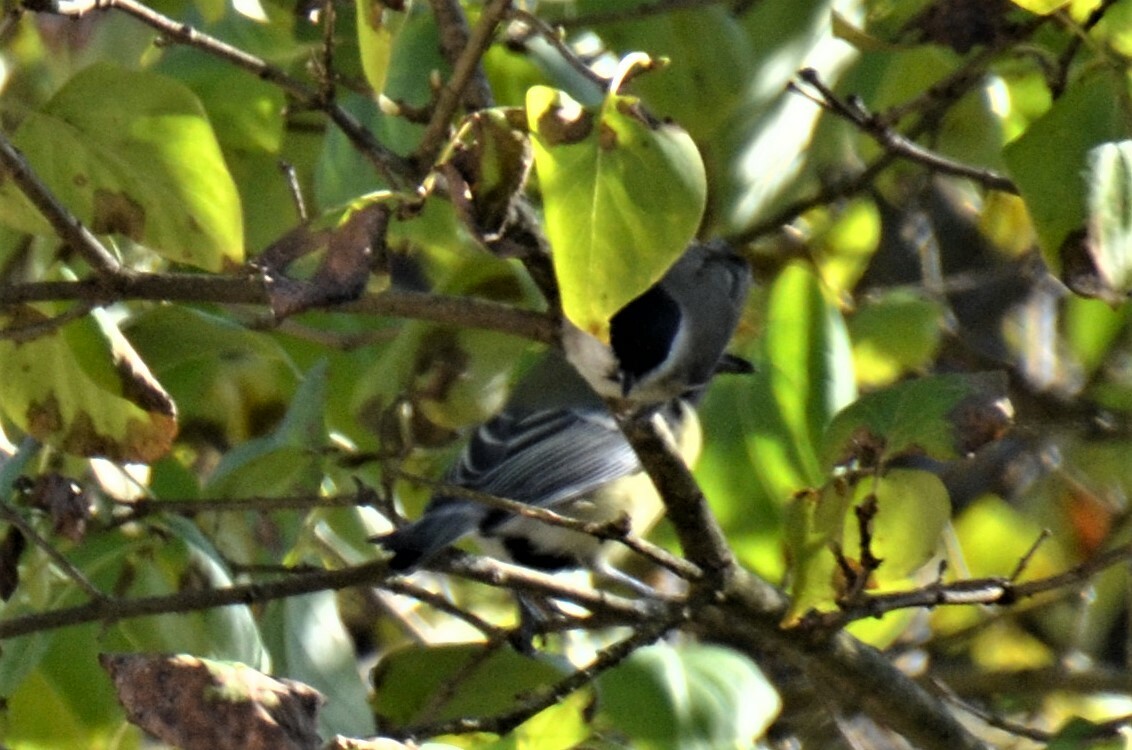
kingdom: Animalia
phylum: Chordata
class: Aves
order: Passeriformes
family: Paridae
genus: Poecile
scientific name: Poecile palustris
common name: Marsh tit
